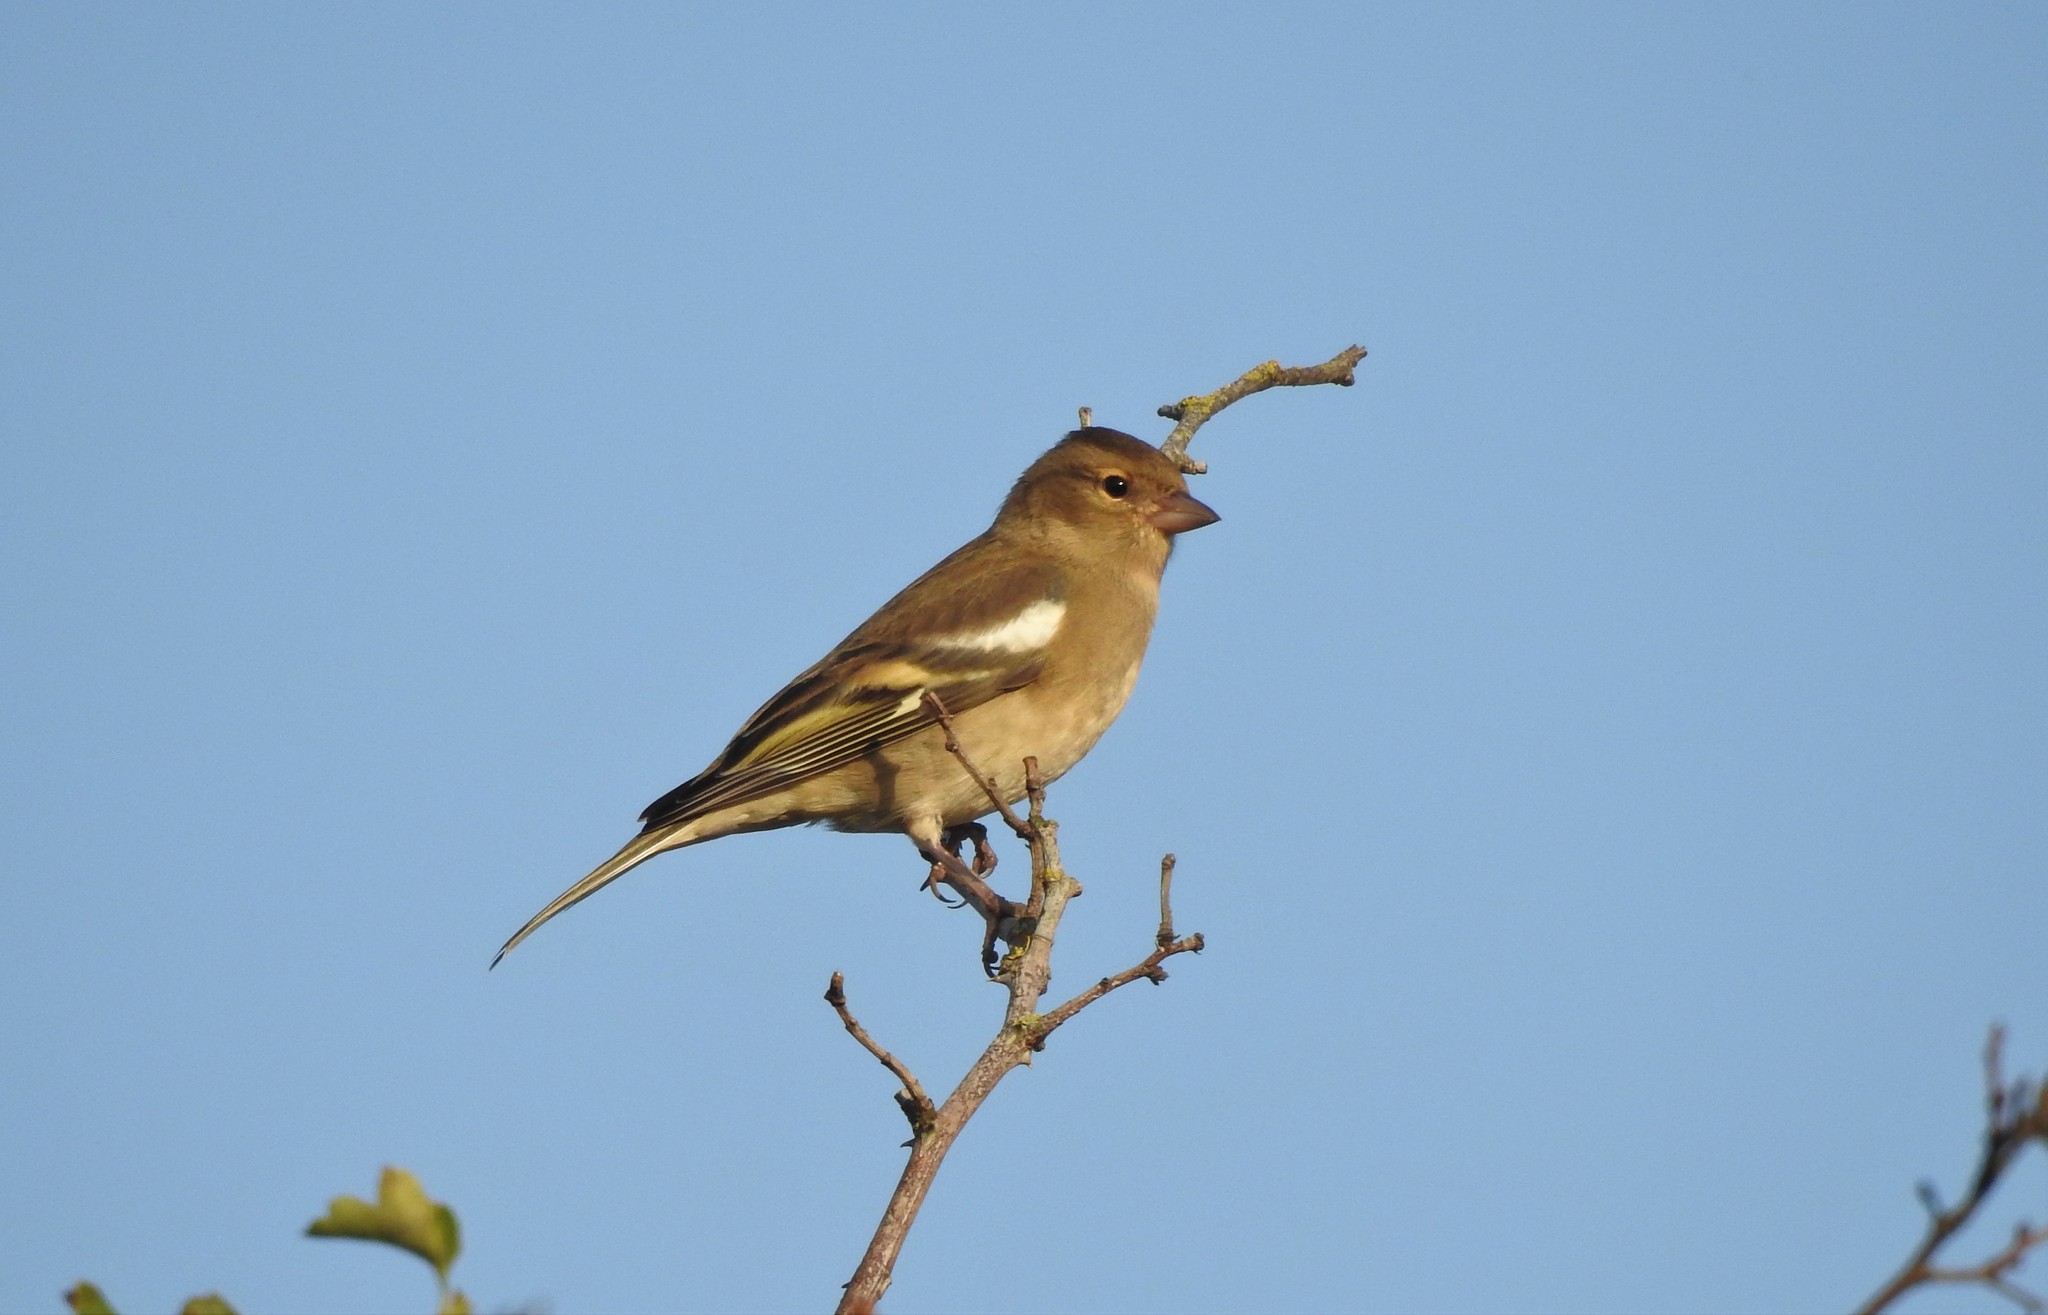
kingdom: Animalia
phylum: Chordata
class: Aves
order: Passeriformes
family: Fringillidae
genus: Fringilla
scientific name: Fringilla coelebs
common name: Common chaffinch
